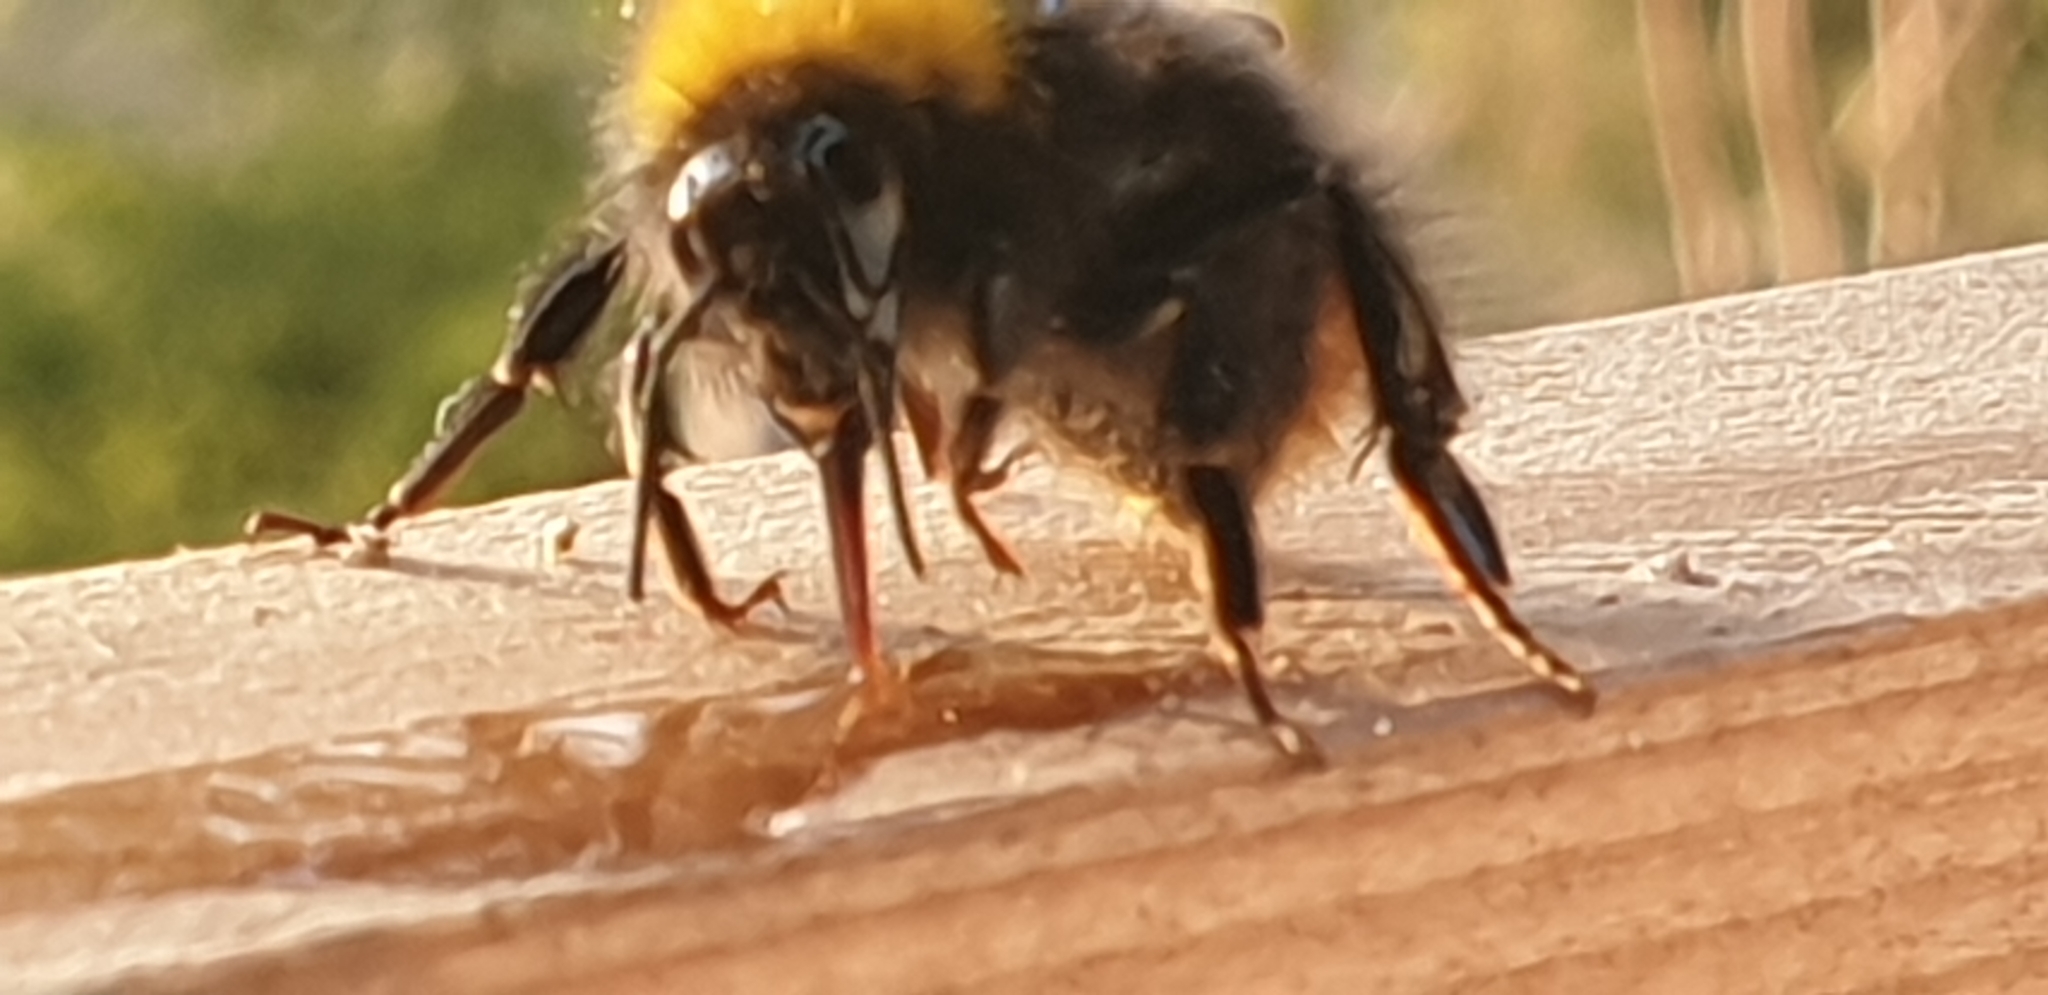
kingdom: Animalia
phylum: Arthropoda
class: Insecta
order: Hymenoptera
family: Apidae
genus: Bombus
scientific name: Bombus pratorum
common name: Early humble-bee
